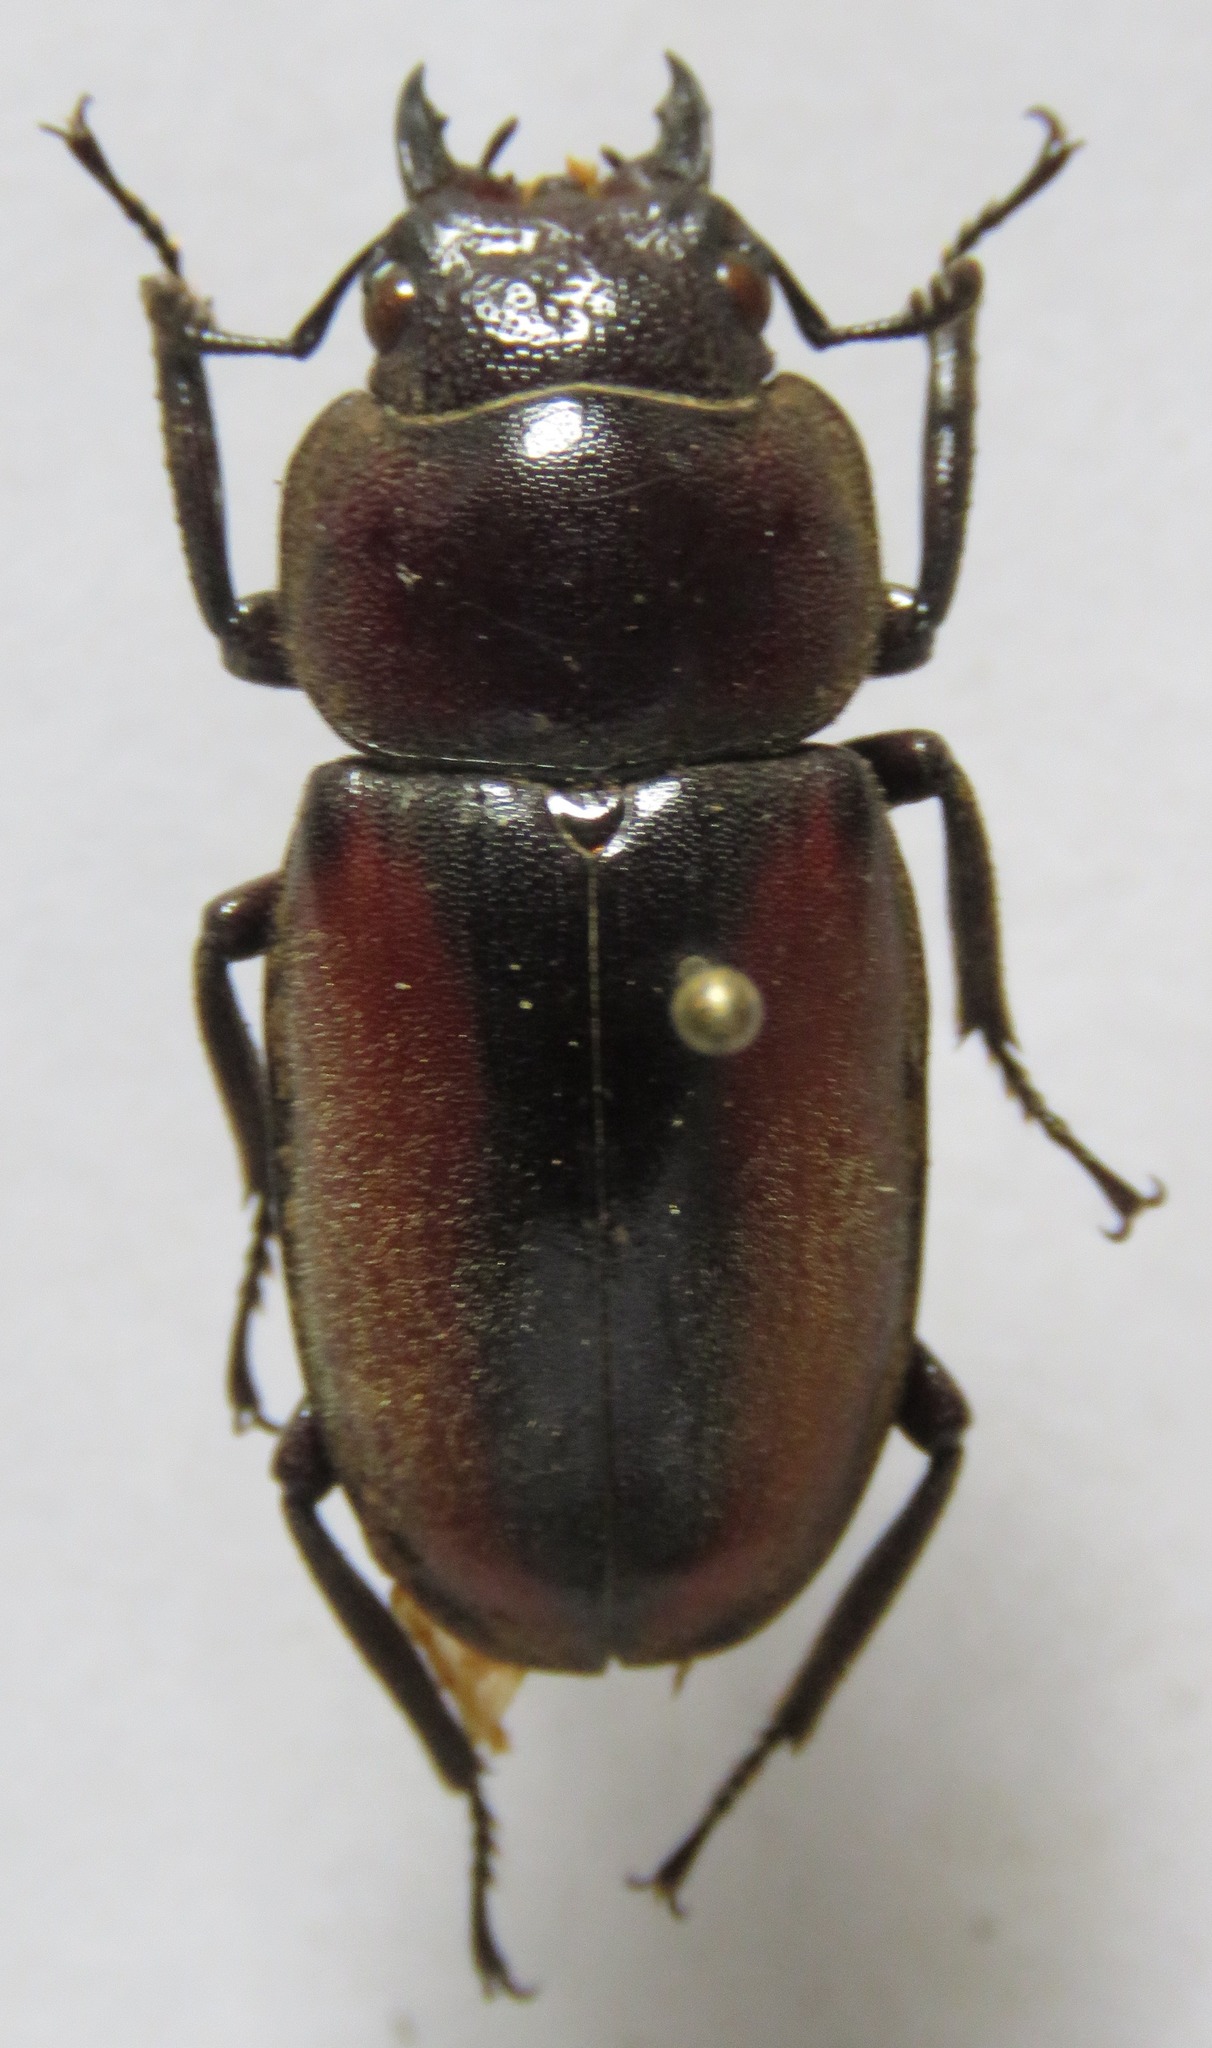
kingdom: Animalia
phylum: Arthropoda
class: Insecta
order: Coleoptera
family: Lucanidae
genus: Prosopocoilus
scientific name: Prosopocoilus planeti
